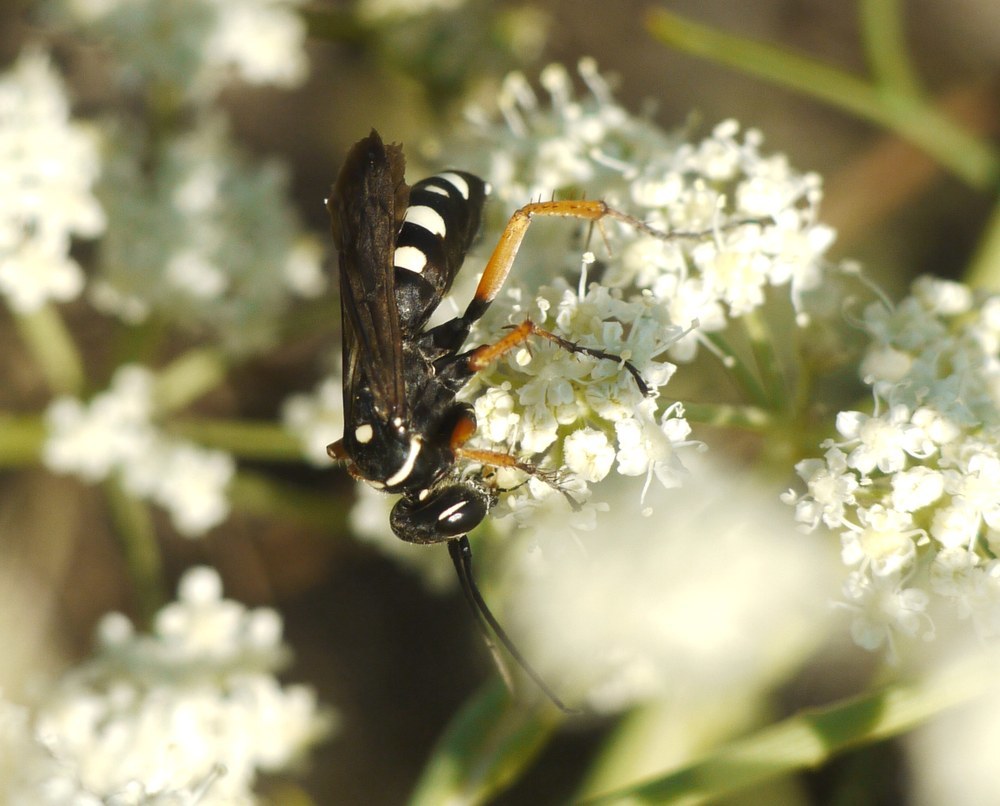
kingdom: Animalia
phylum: Arthropoda
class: Insecta
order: Hymenoptera
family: Pompilidae
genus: Episyron
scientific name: Episyron albonotatum
